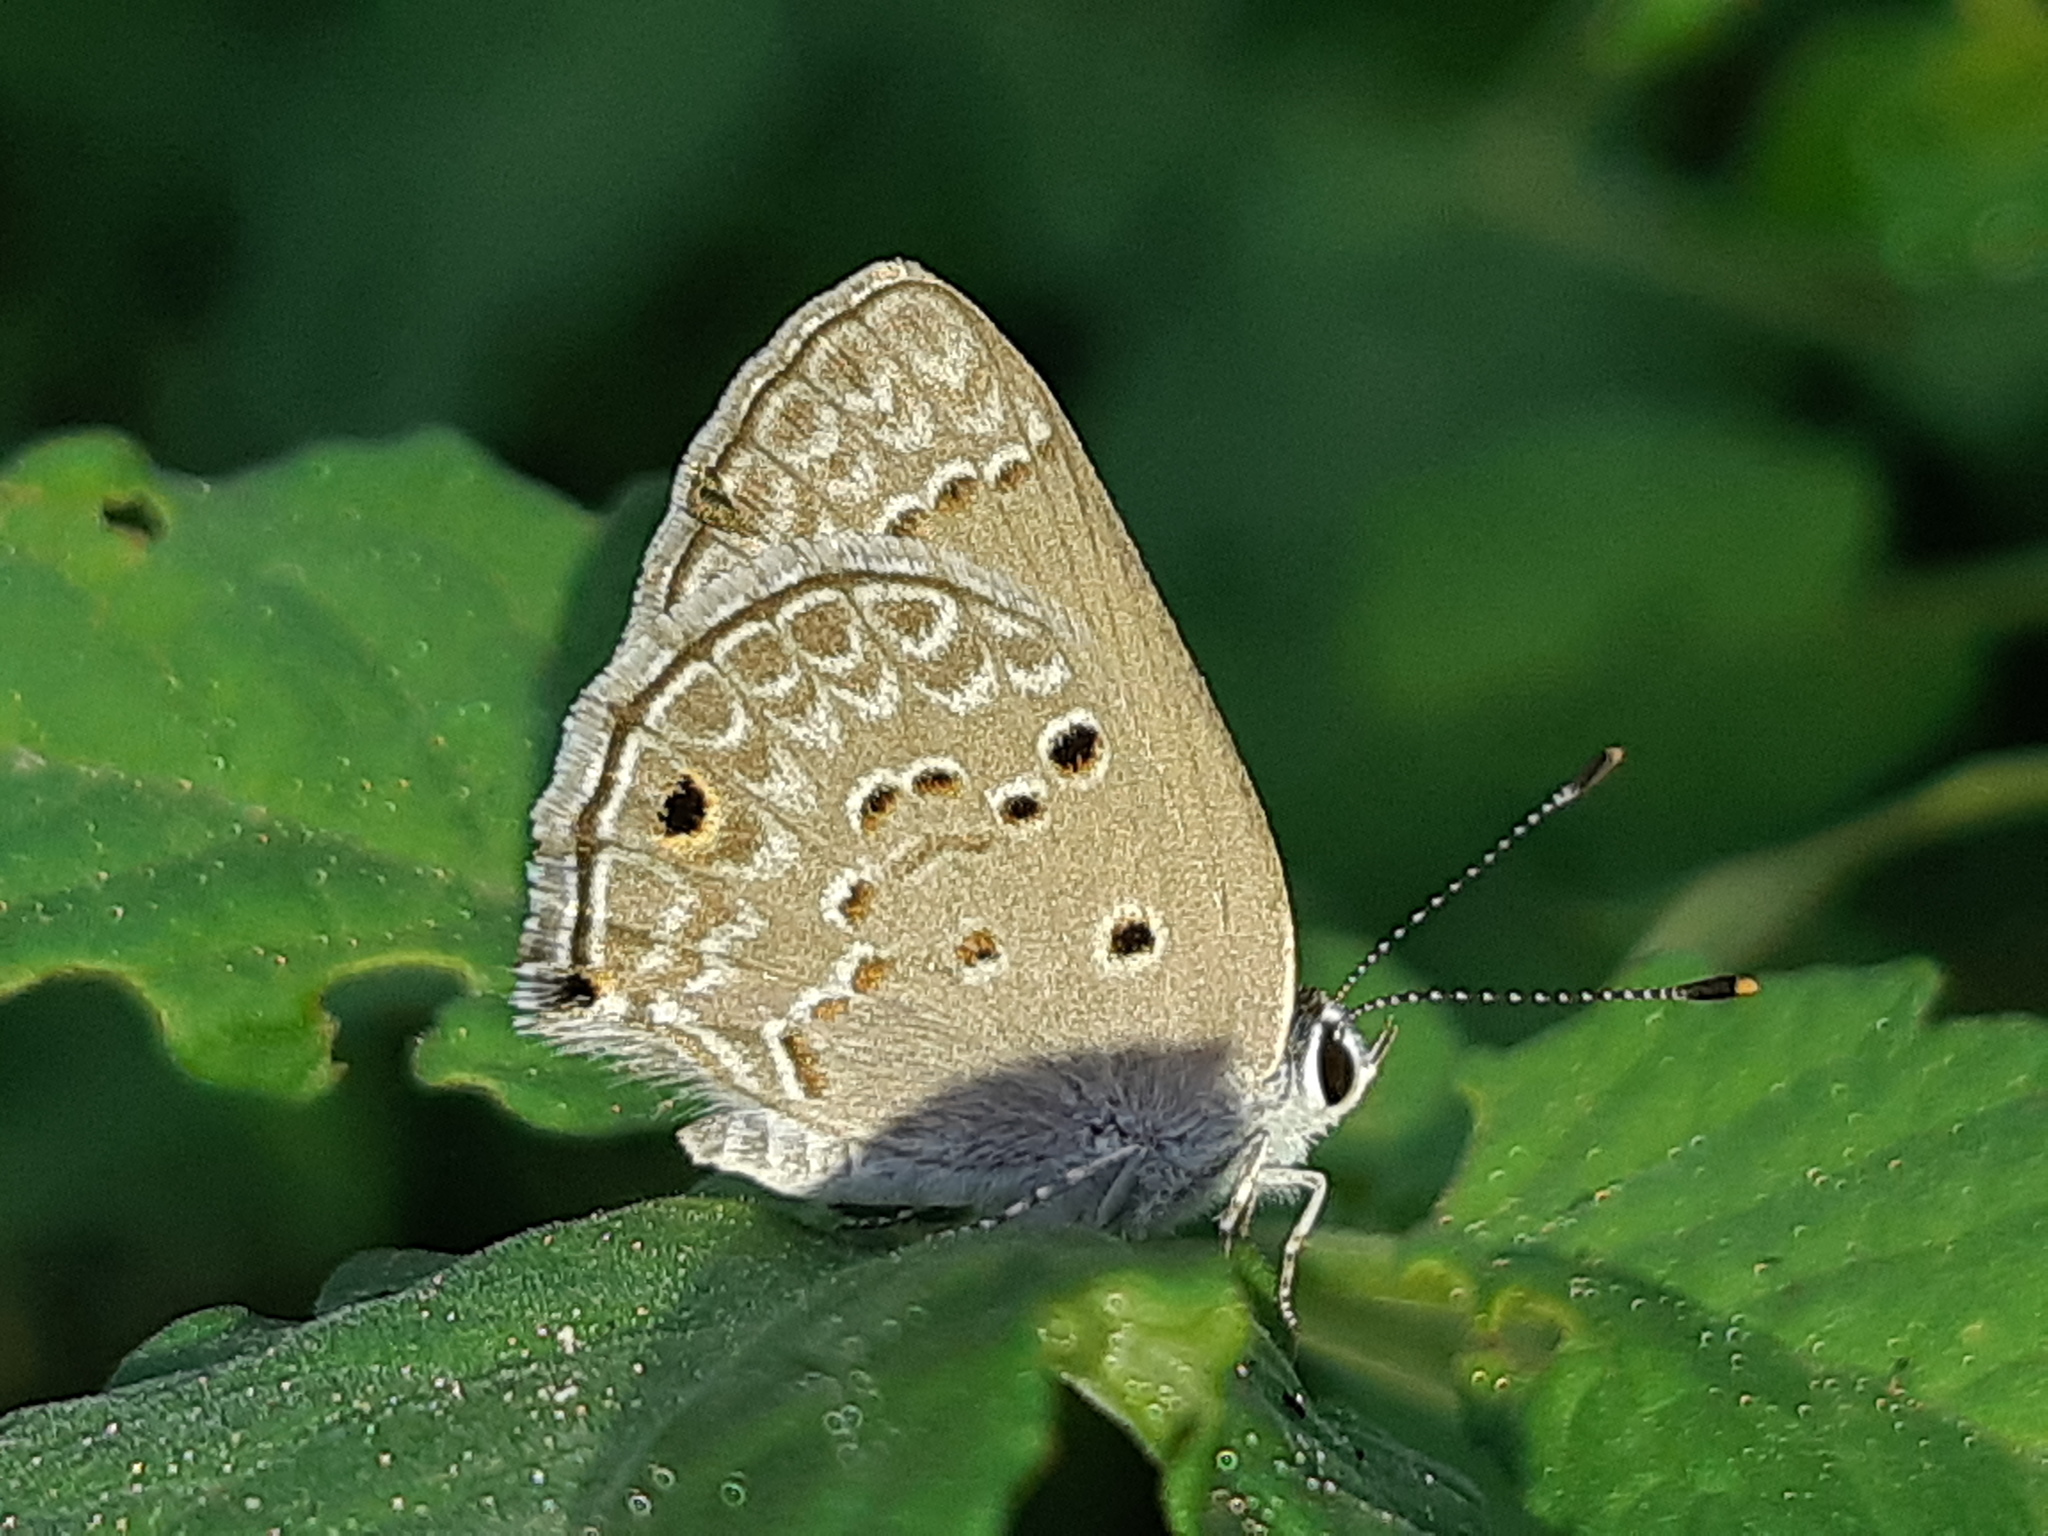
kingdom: Animalia
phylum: Arthropoda
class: Insecta
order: Lepidoptera
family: Lycaenidae
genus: Strymon
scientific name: Strymon bubastus
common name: Bubastes hairstreak
